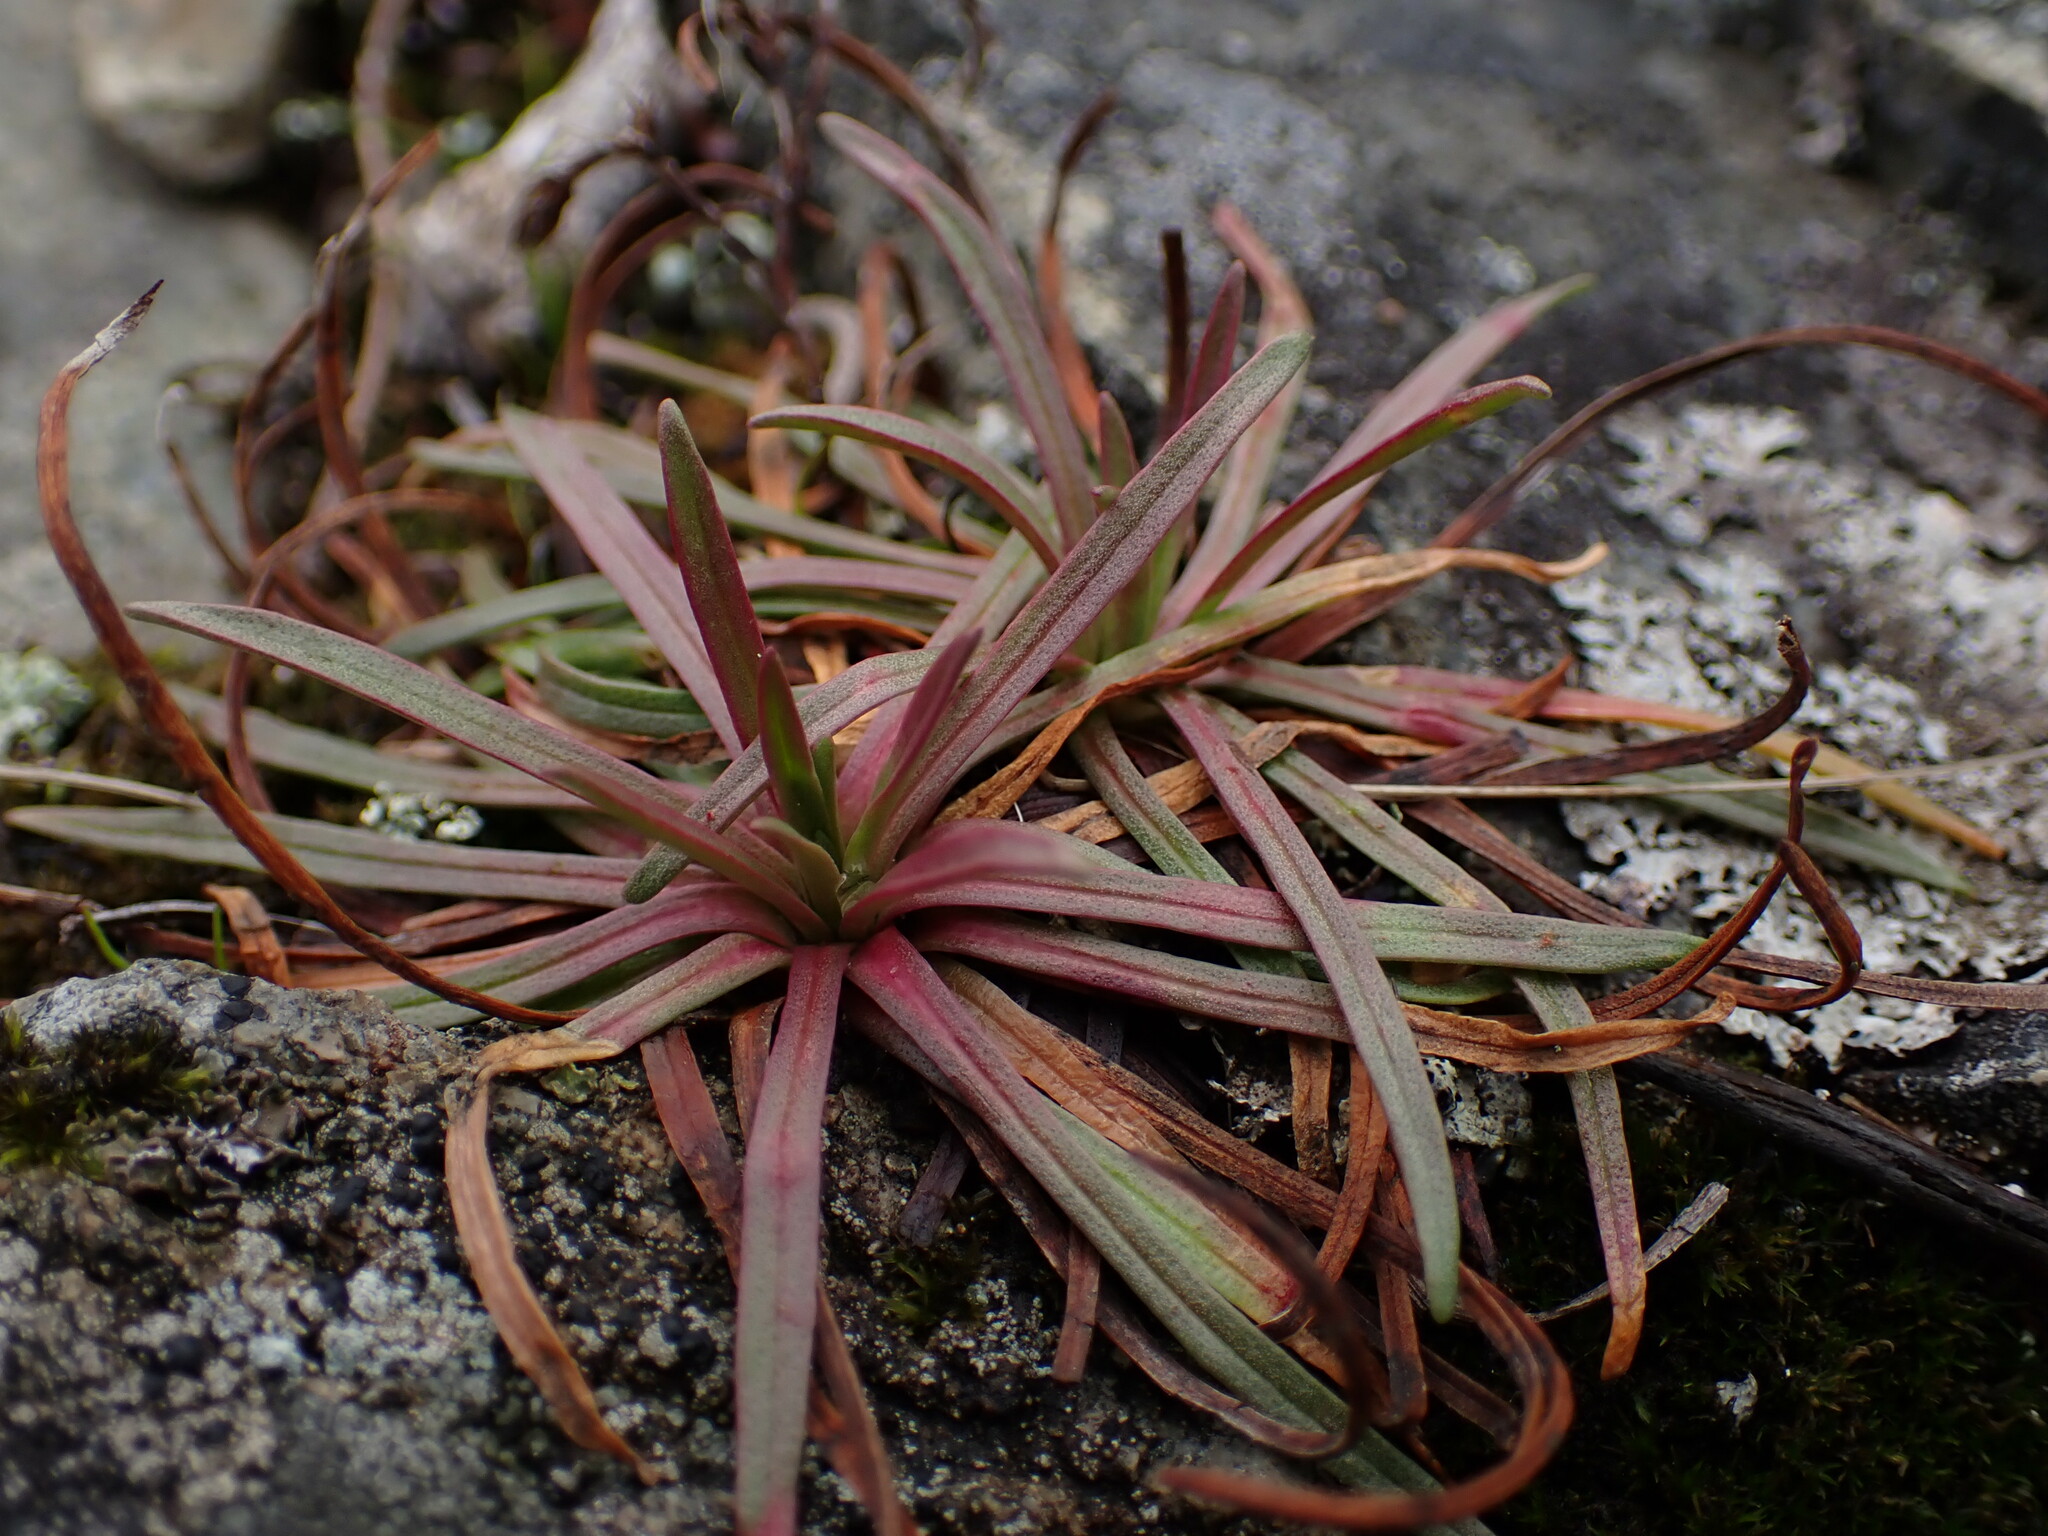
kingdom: Plantae
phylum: Tracheophyta
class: Magnoliopsida
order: Caryophyllales
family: Plumbaginaceae
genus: Armeria
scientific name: Armeria maritima
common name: Thrift
